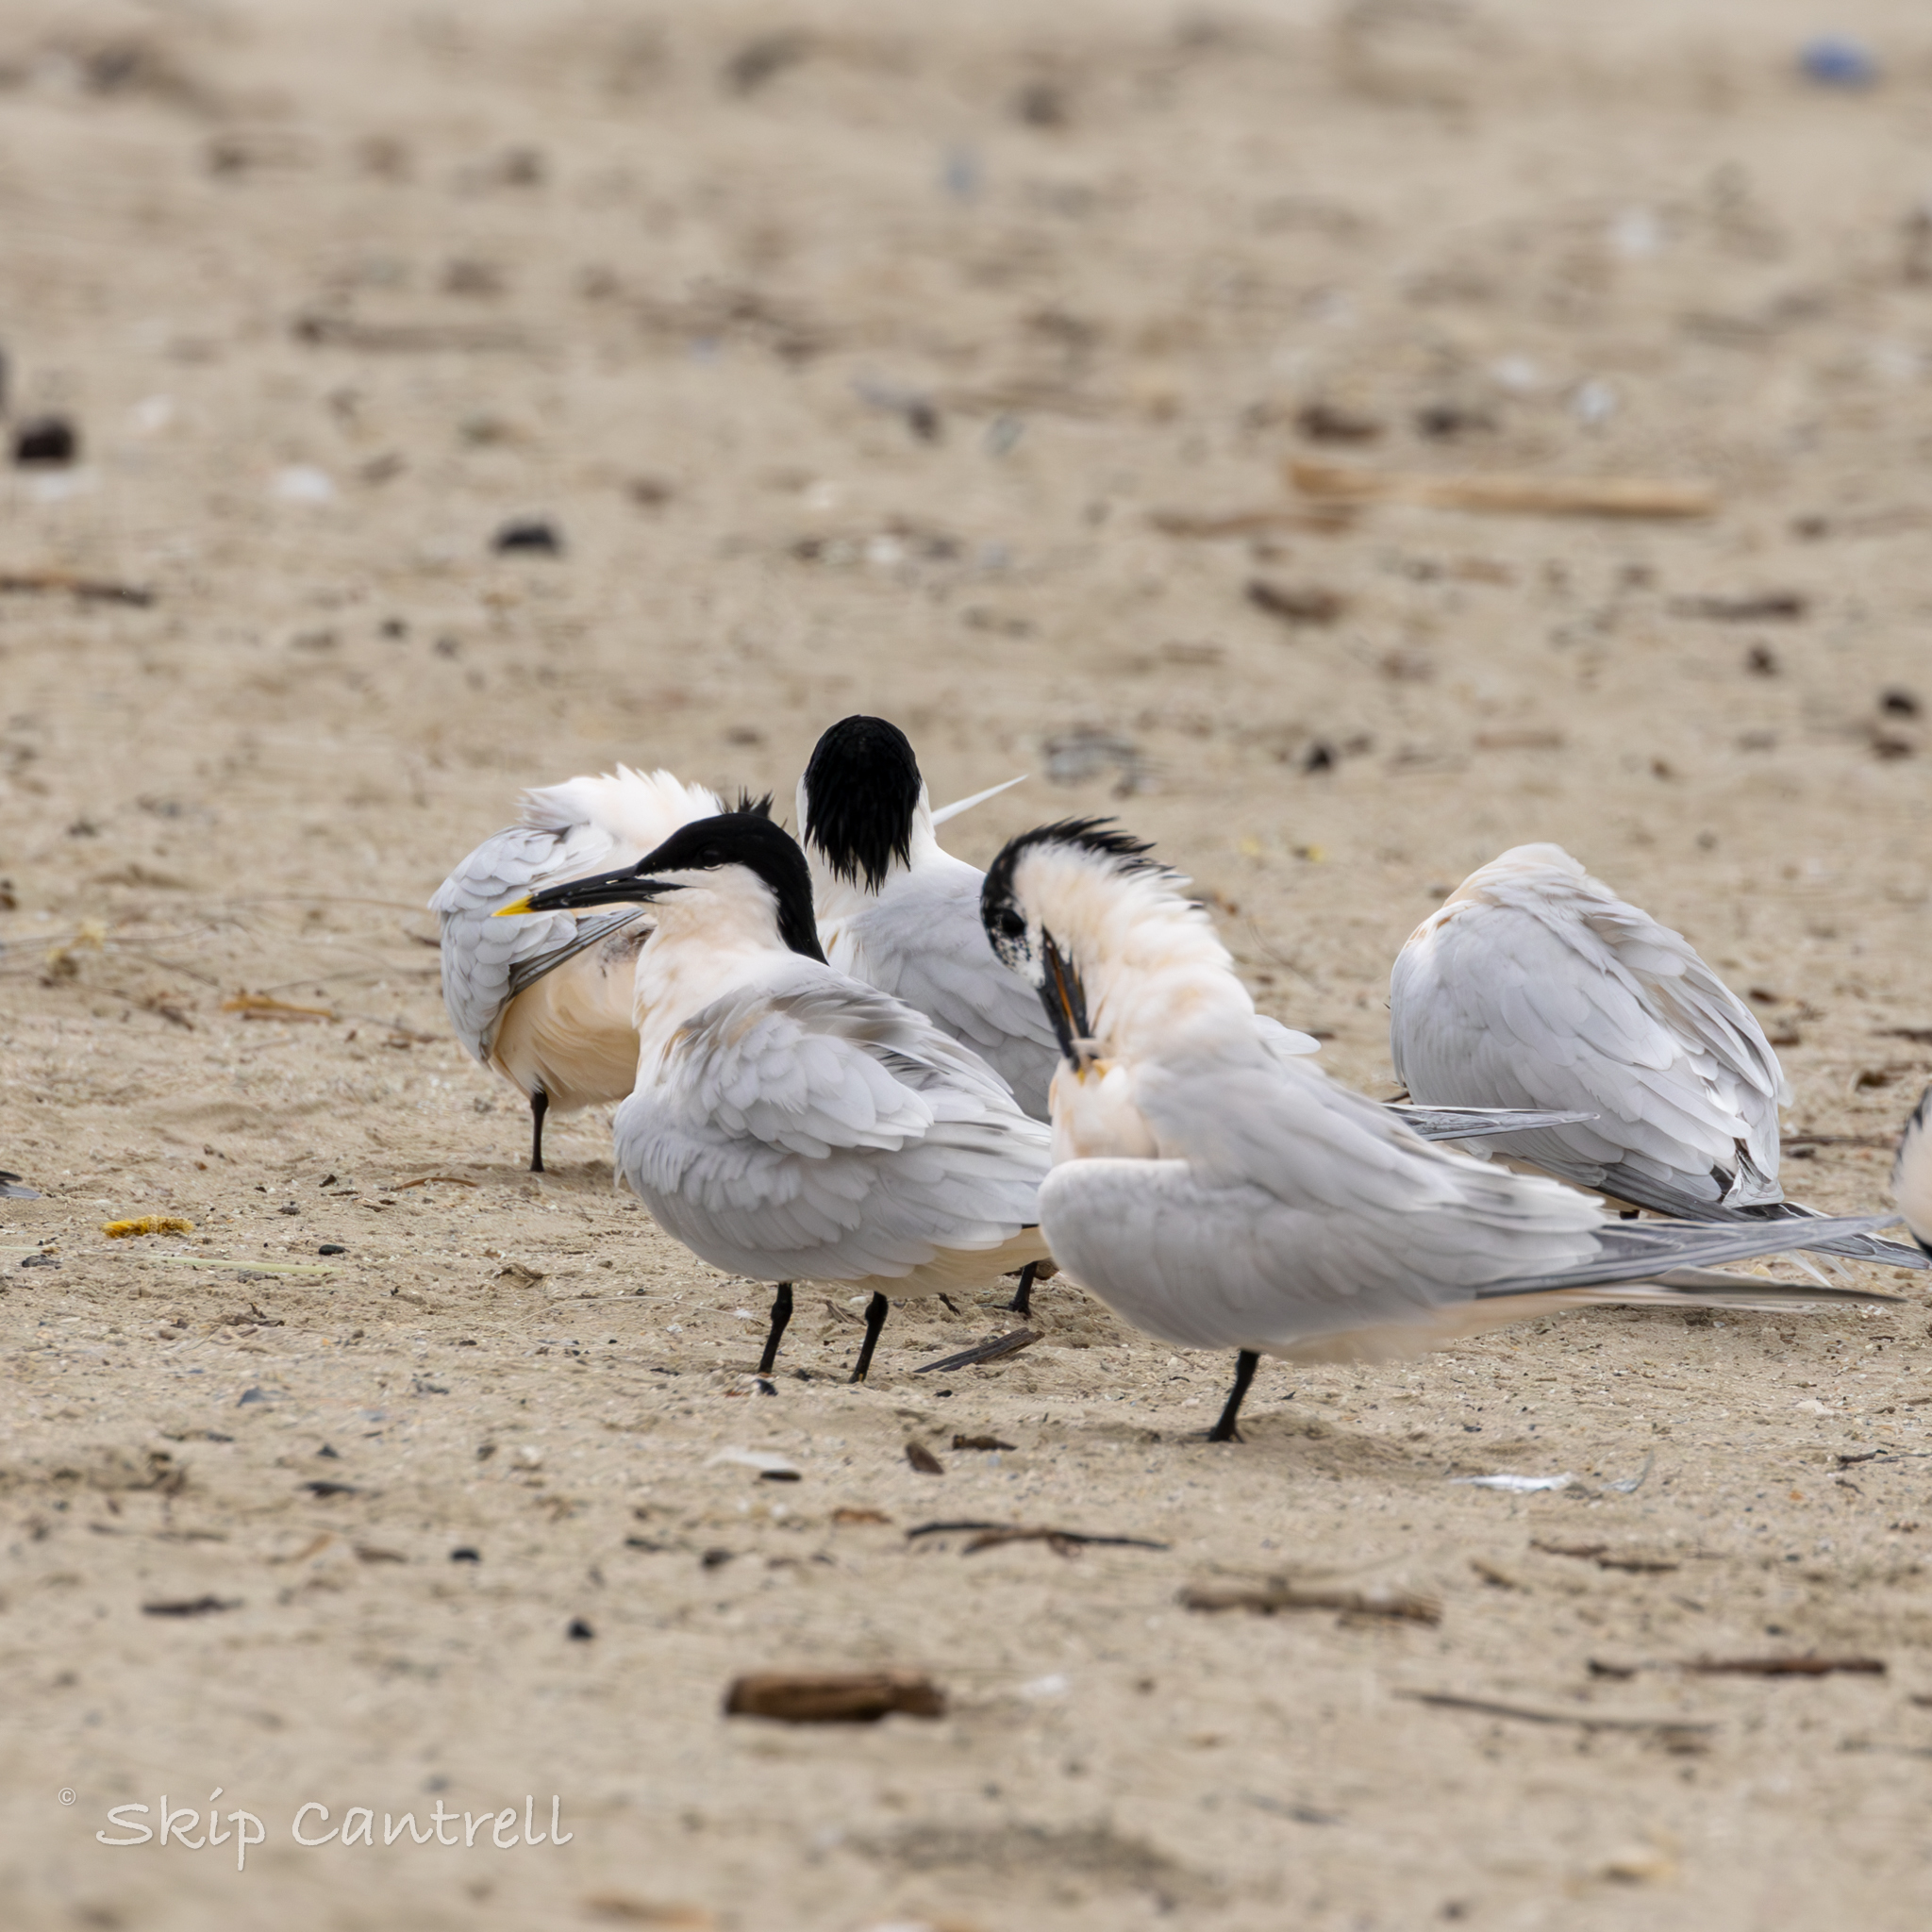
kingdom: Animalia
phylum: Chordata
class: Aves
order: Charadriiformes
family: Laridae
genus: Thalasseus
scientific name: Thalasseus sandvicensis
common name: Sandwich tern
